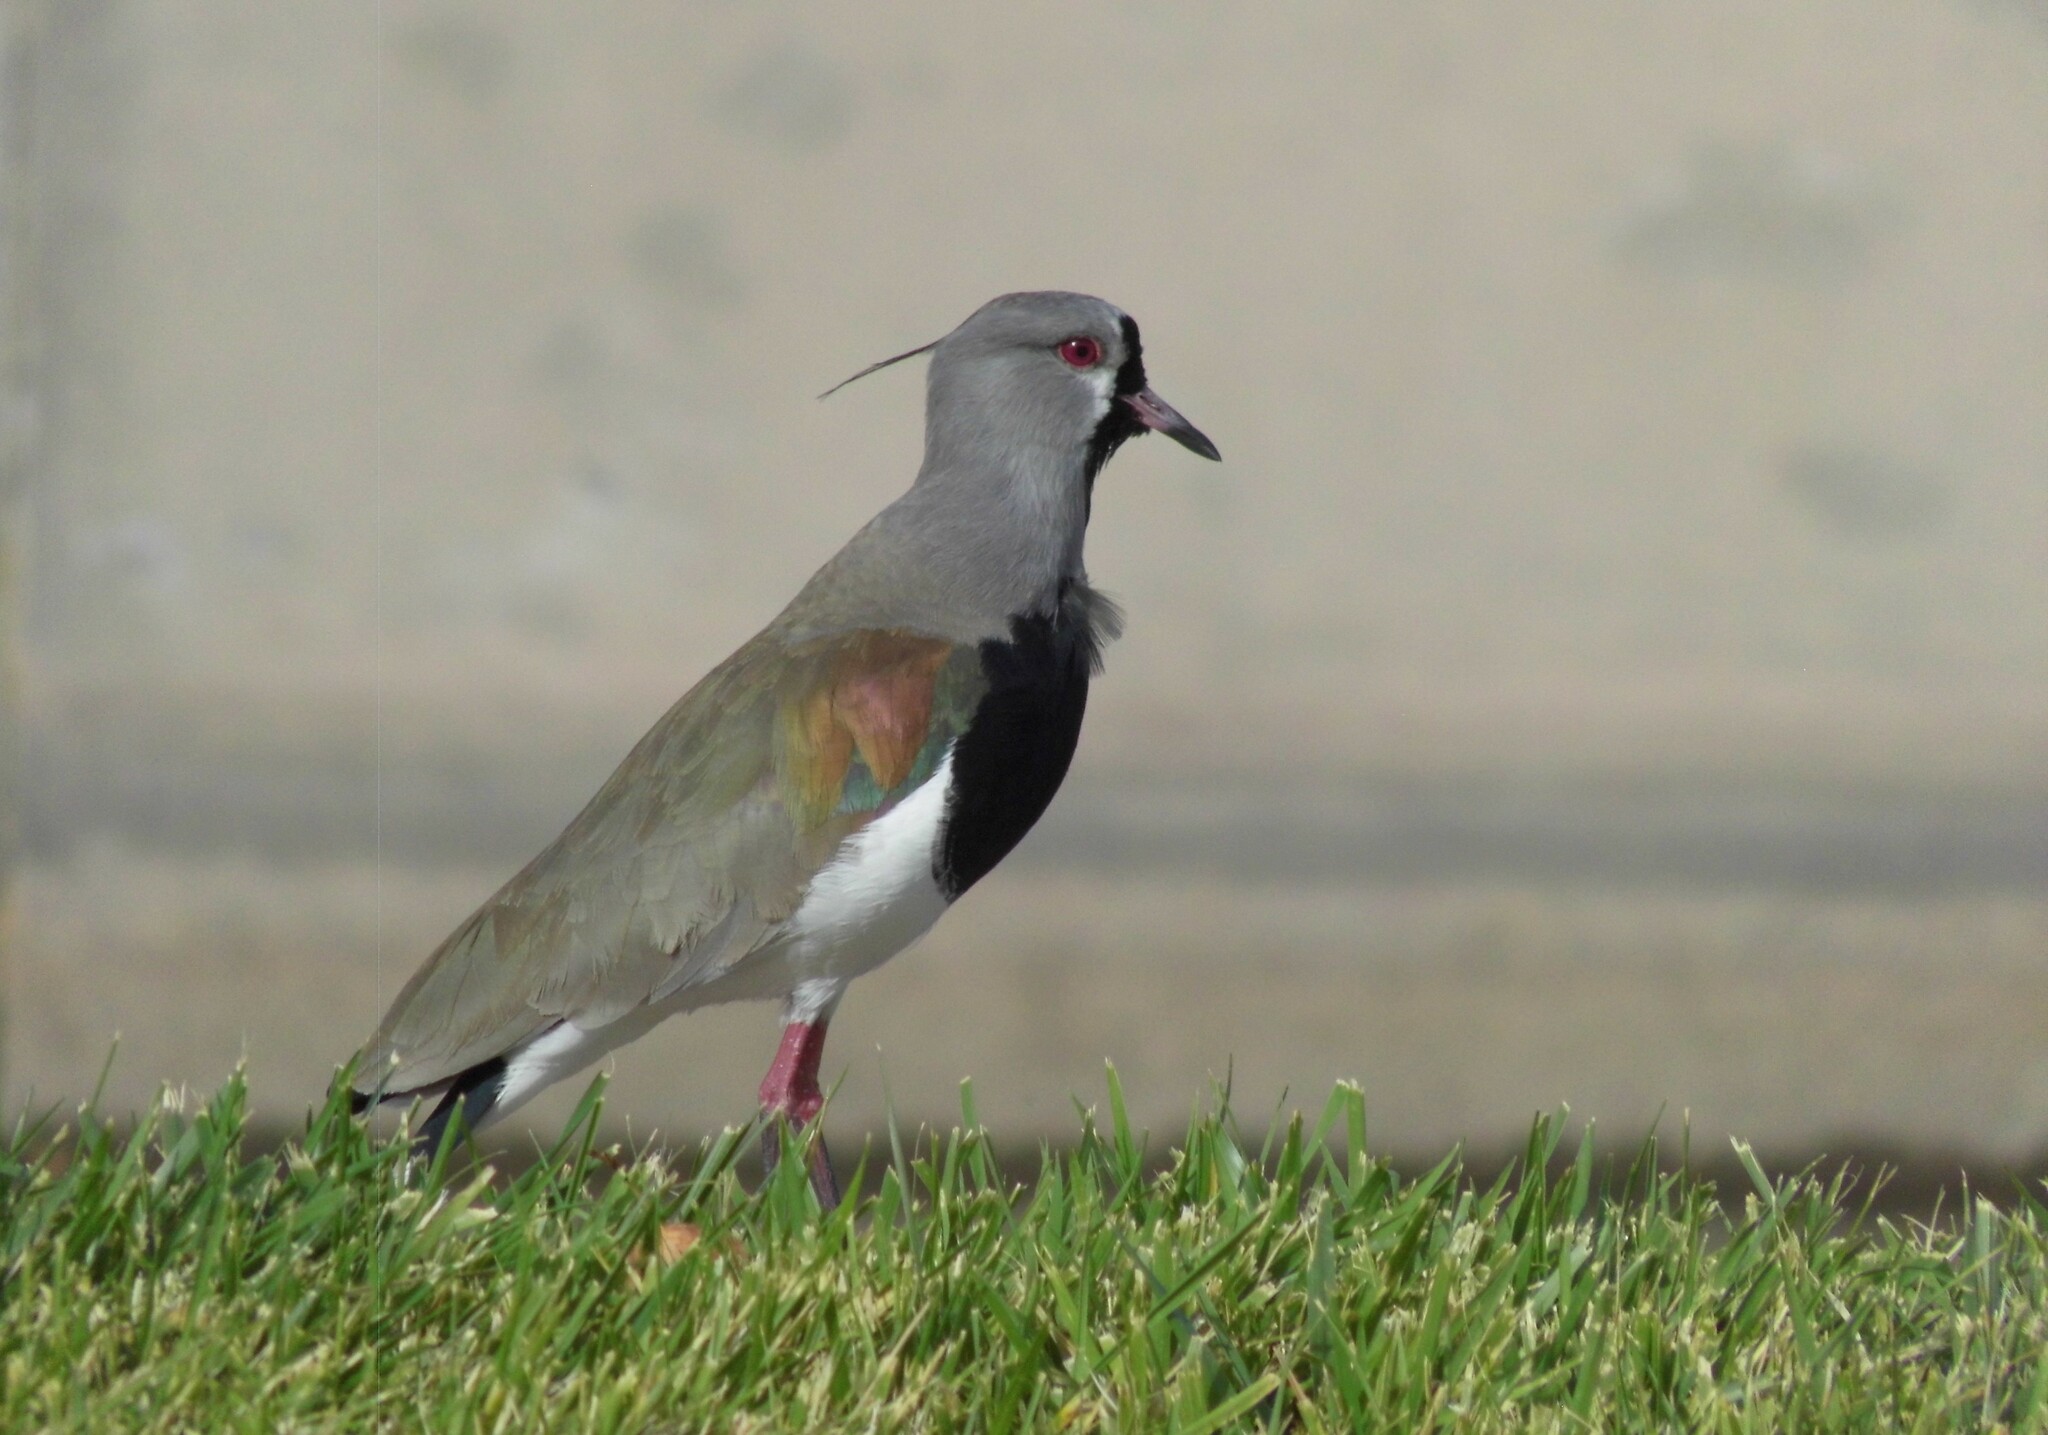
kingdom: Animalia
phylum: Chordata
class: Aves
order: Charadriiformes
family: Charadriidae
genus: Vanellus
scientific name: Vanellus chilensis
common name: Southern lapwing
